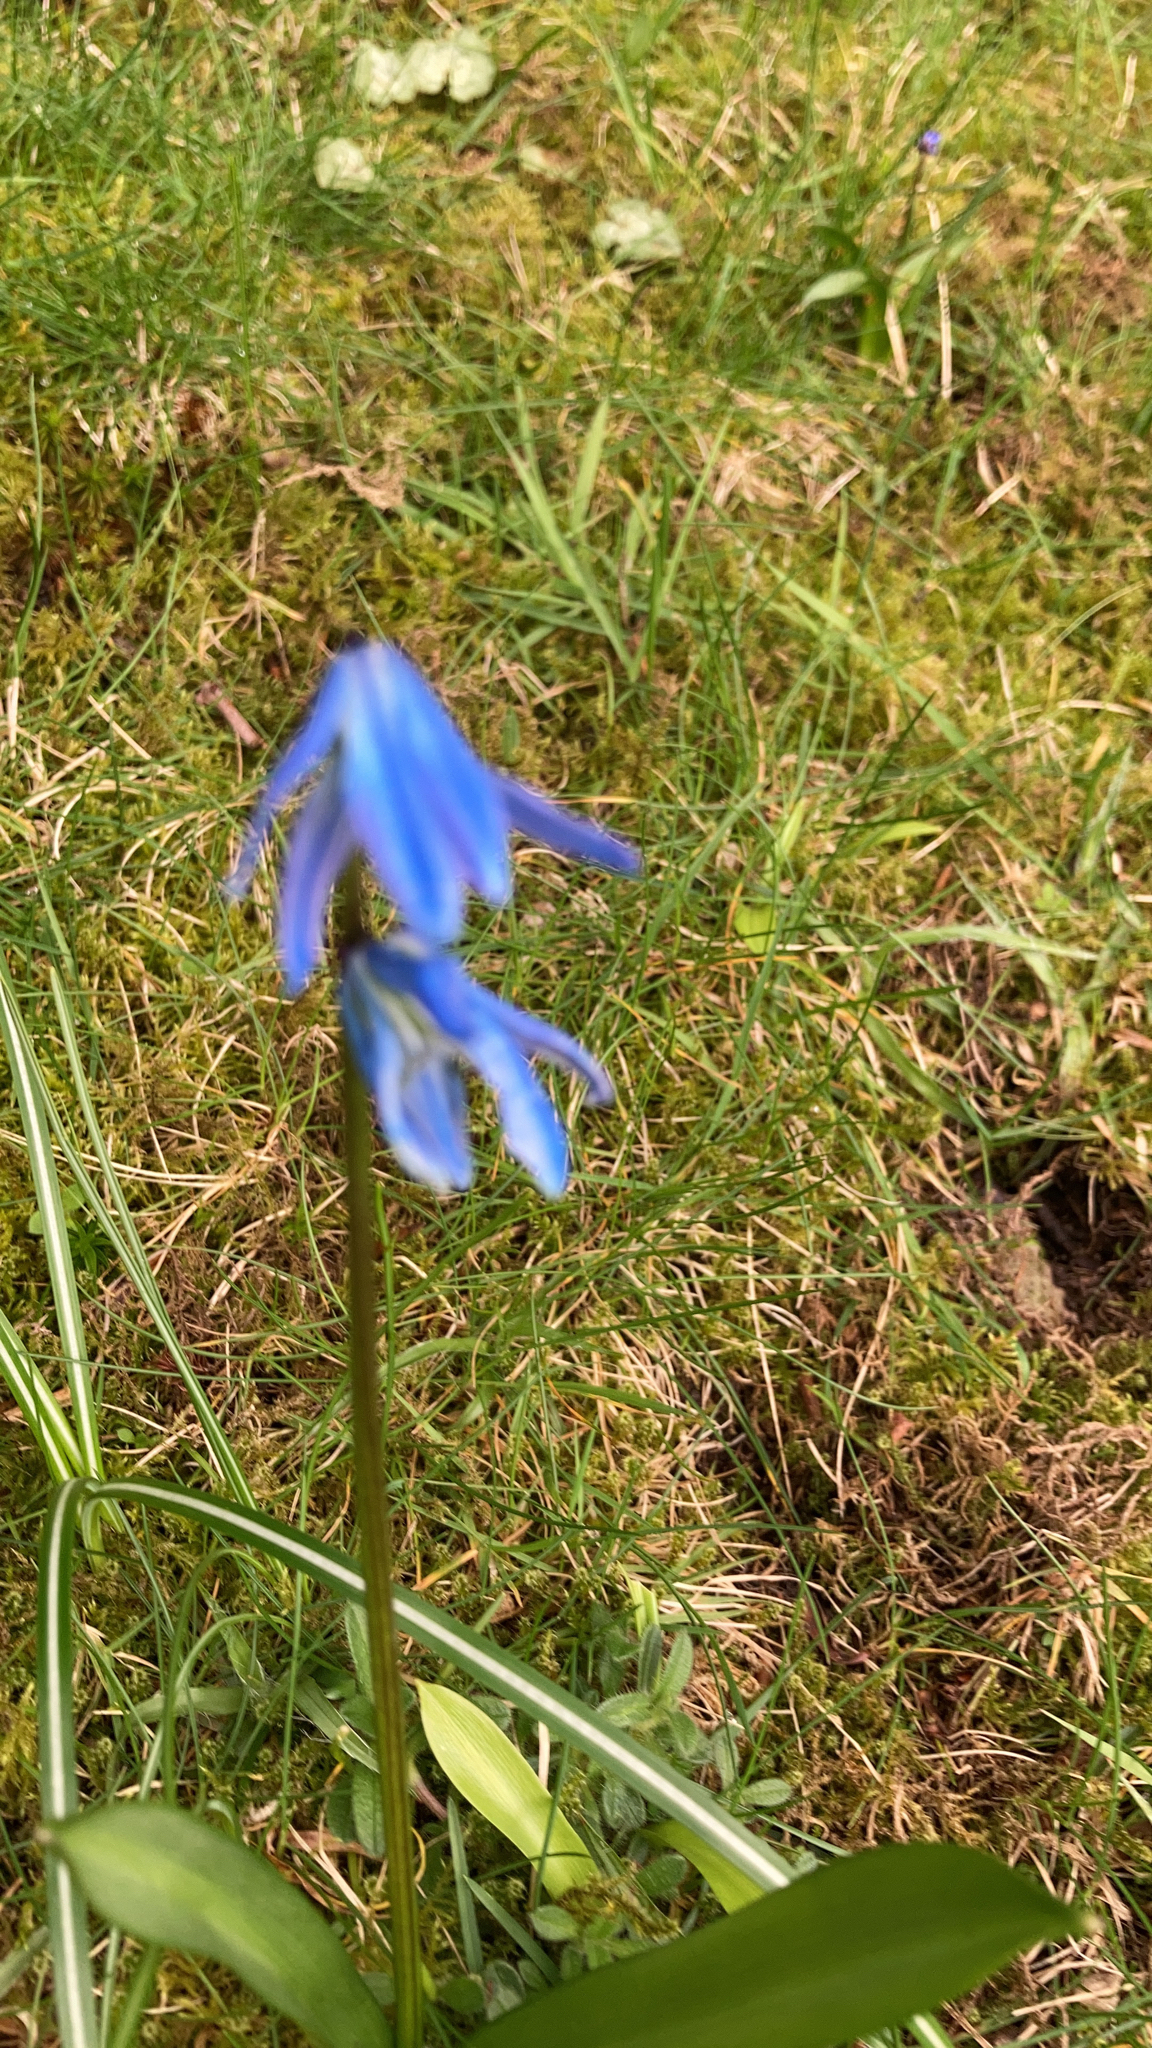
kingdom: Plantae
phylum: Tracheophyta
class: Liliopsida
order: Asparagales
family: Asparagaceae
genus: Scilla
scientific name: Scilla siberica
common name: Siberian squill
